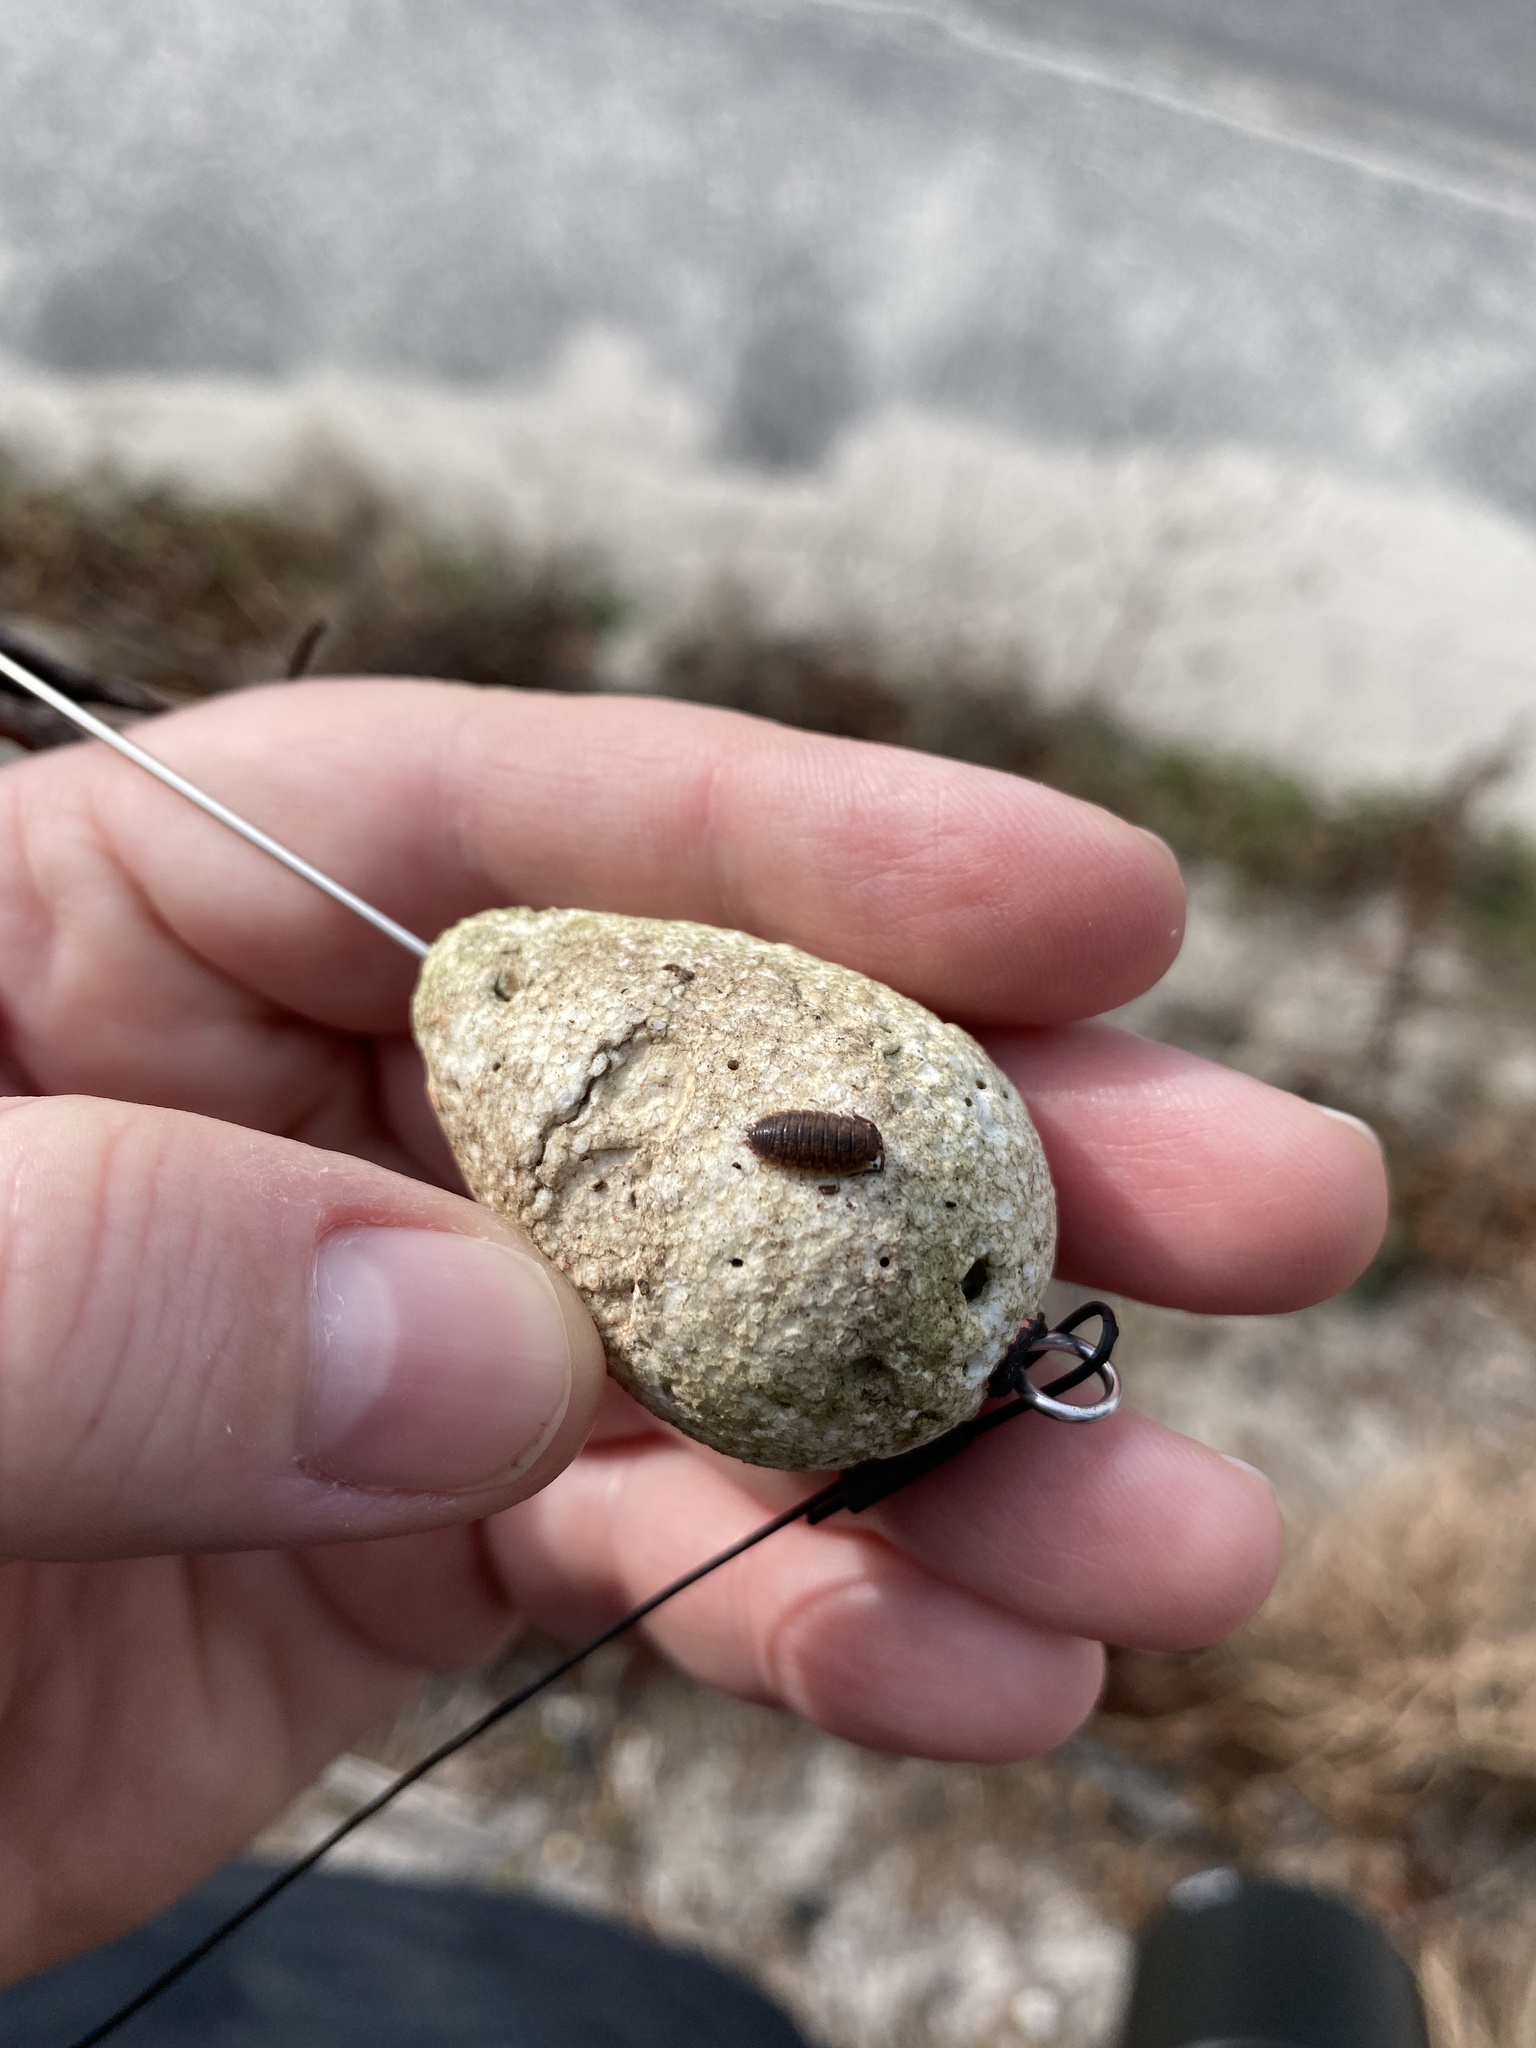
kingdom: Animalia
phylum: Arthropoda
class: Malacostraca
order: Isopoda
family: Porcellionidae
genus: Porcellio
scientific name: Porcellio scaber
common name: Common rough woodlouse
